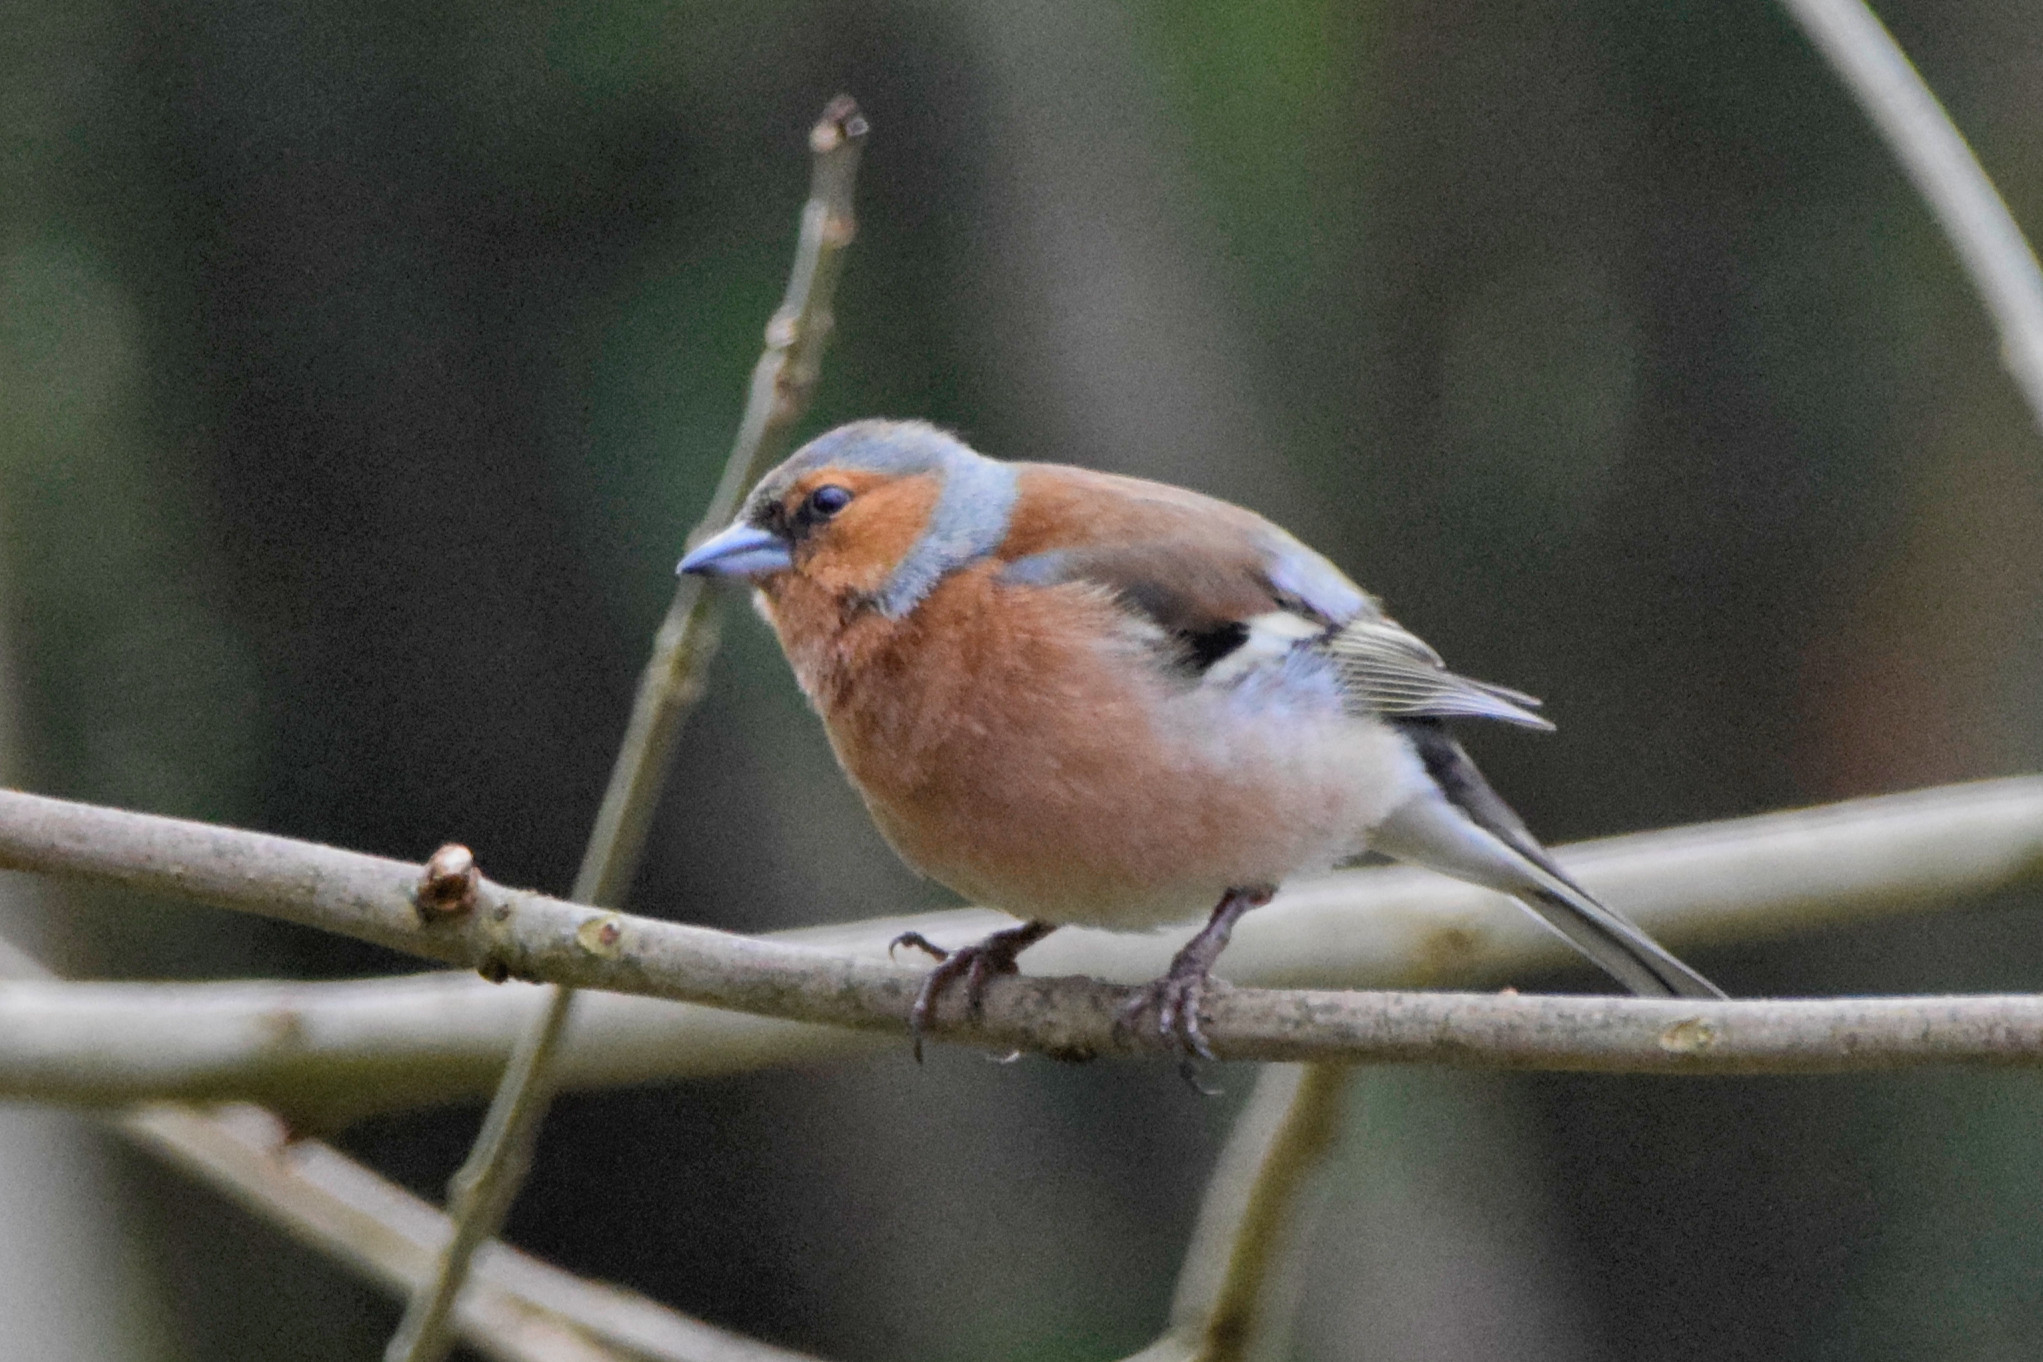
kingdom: Animalia
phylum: Chordata
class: Aves
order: Passeriformes
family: Fringillidae
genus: Fringilla
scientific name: Fringilla coelebs
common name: Common chaffinch
